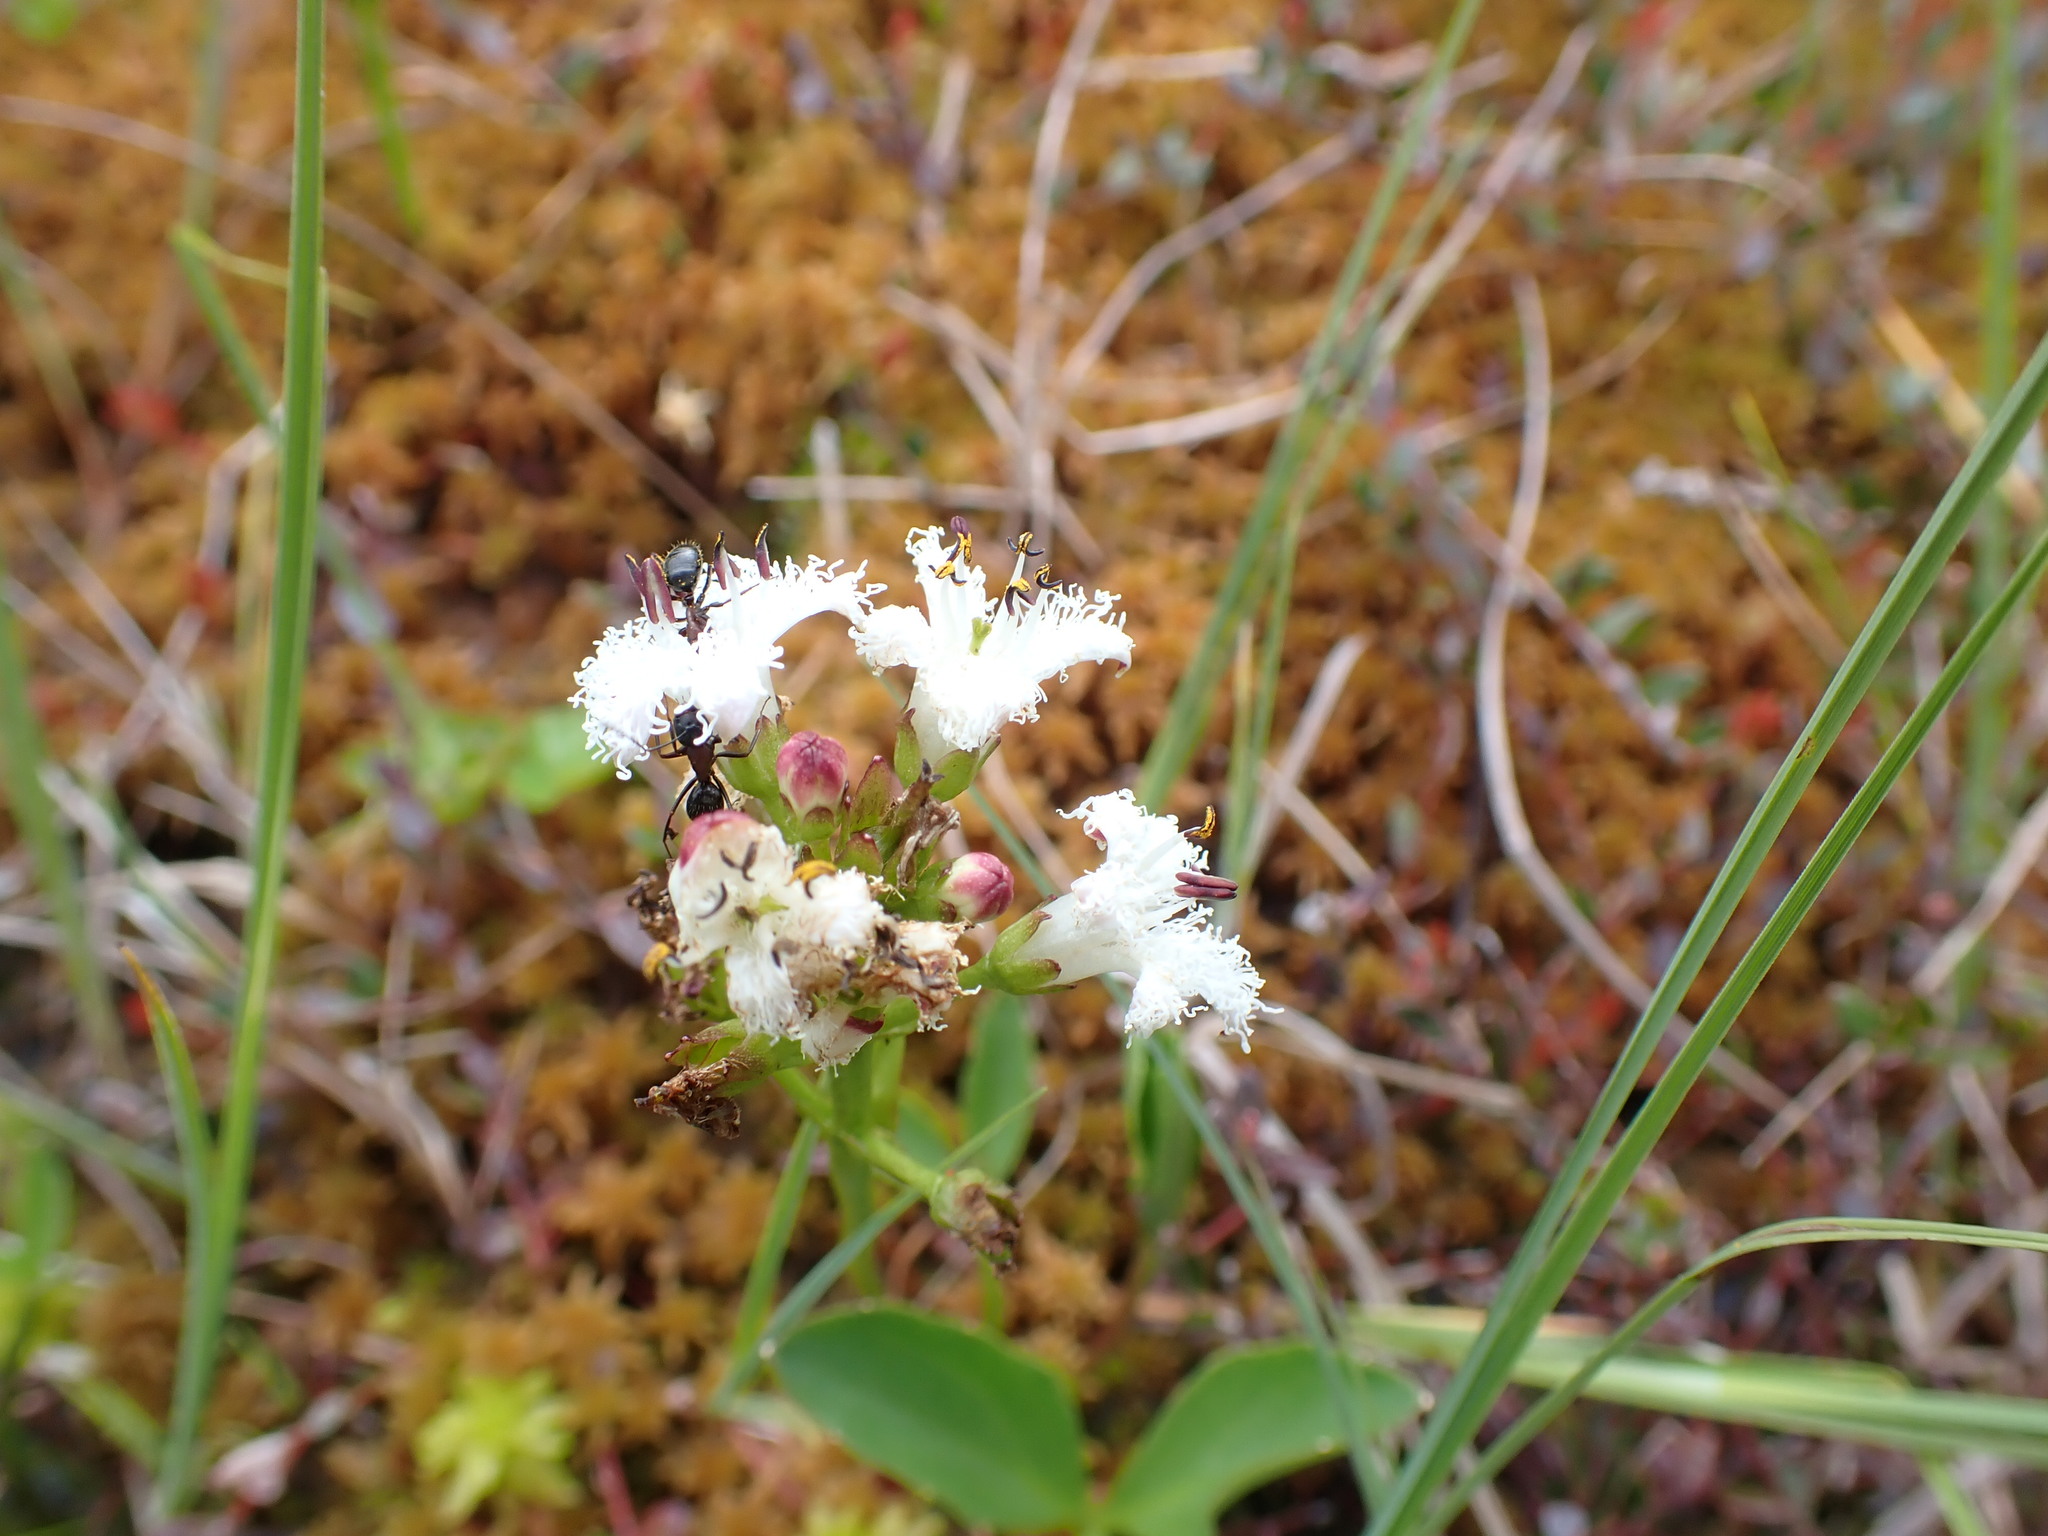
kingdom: Plantae
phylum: Tracheophyta
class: Magnoliopsida
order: Asterales
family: Menyanthaceae
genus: Menyanthes
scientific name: Menyanthes trifoliata
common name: Bogbean
